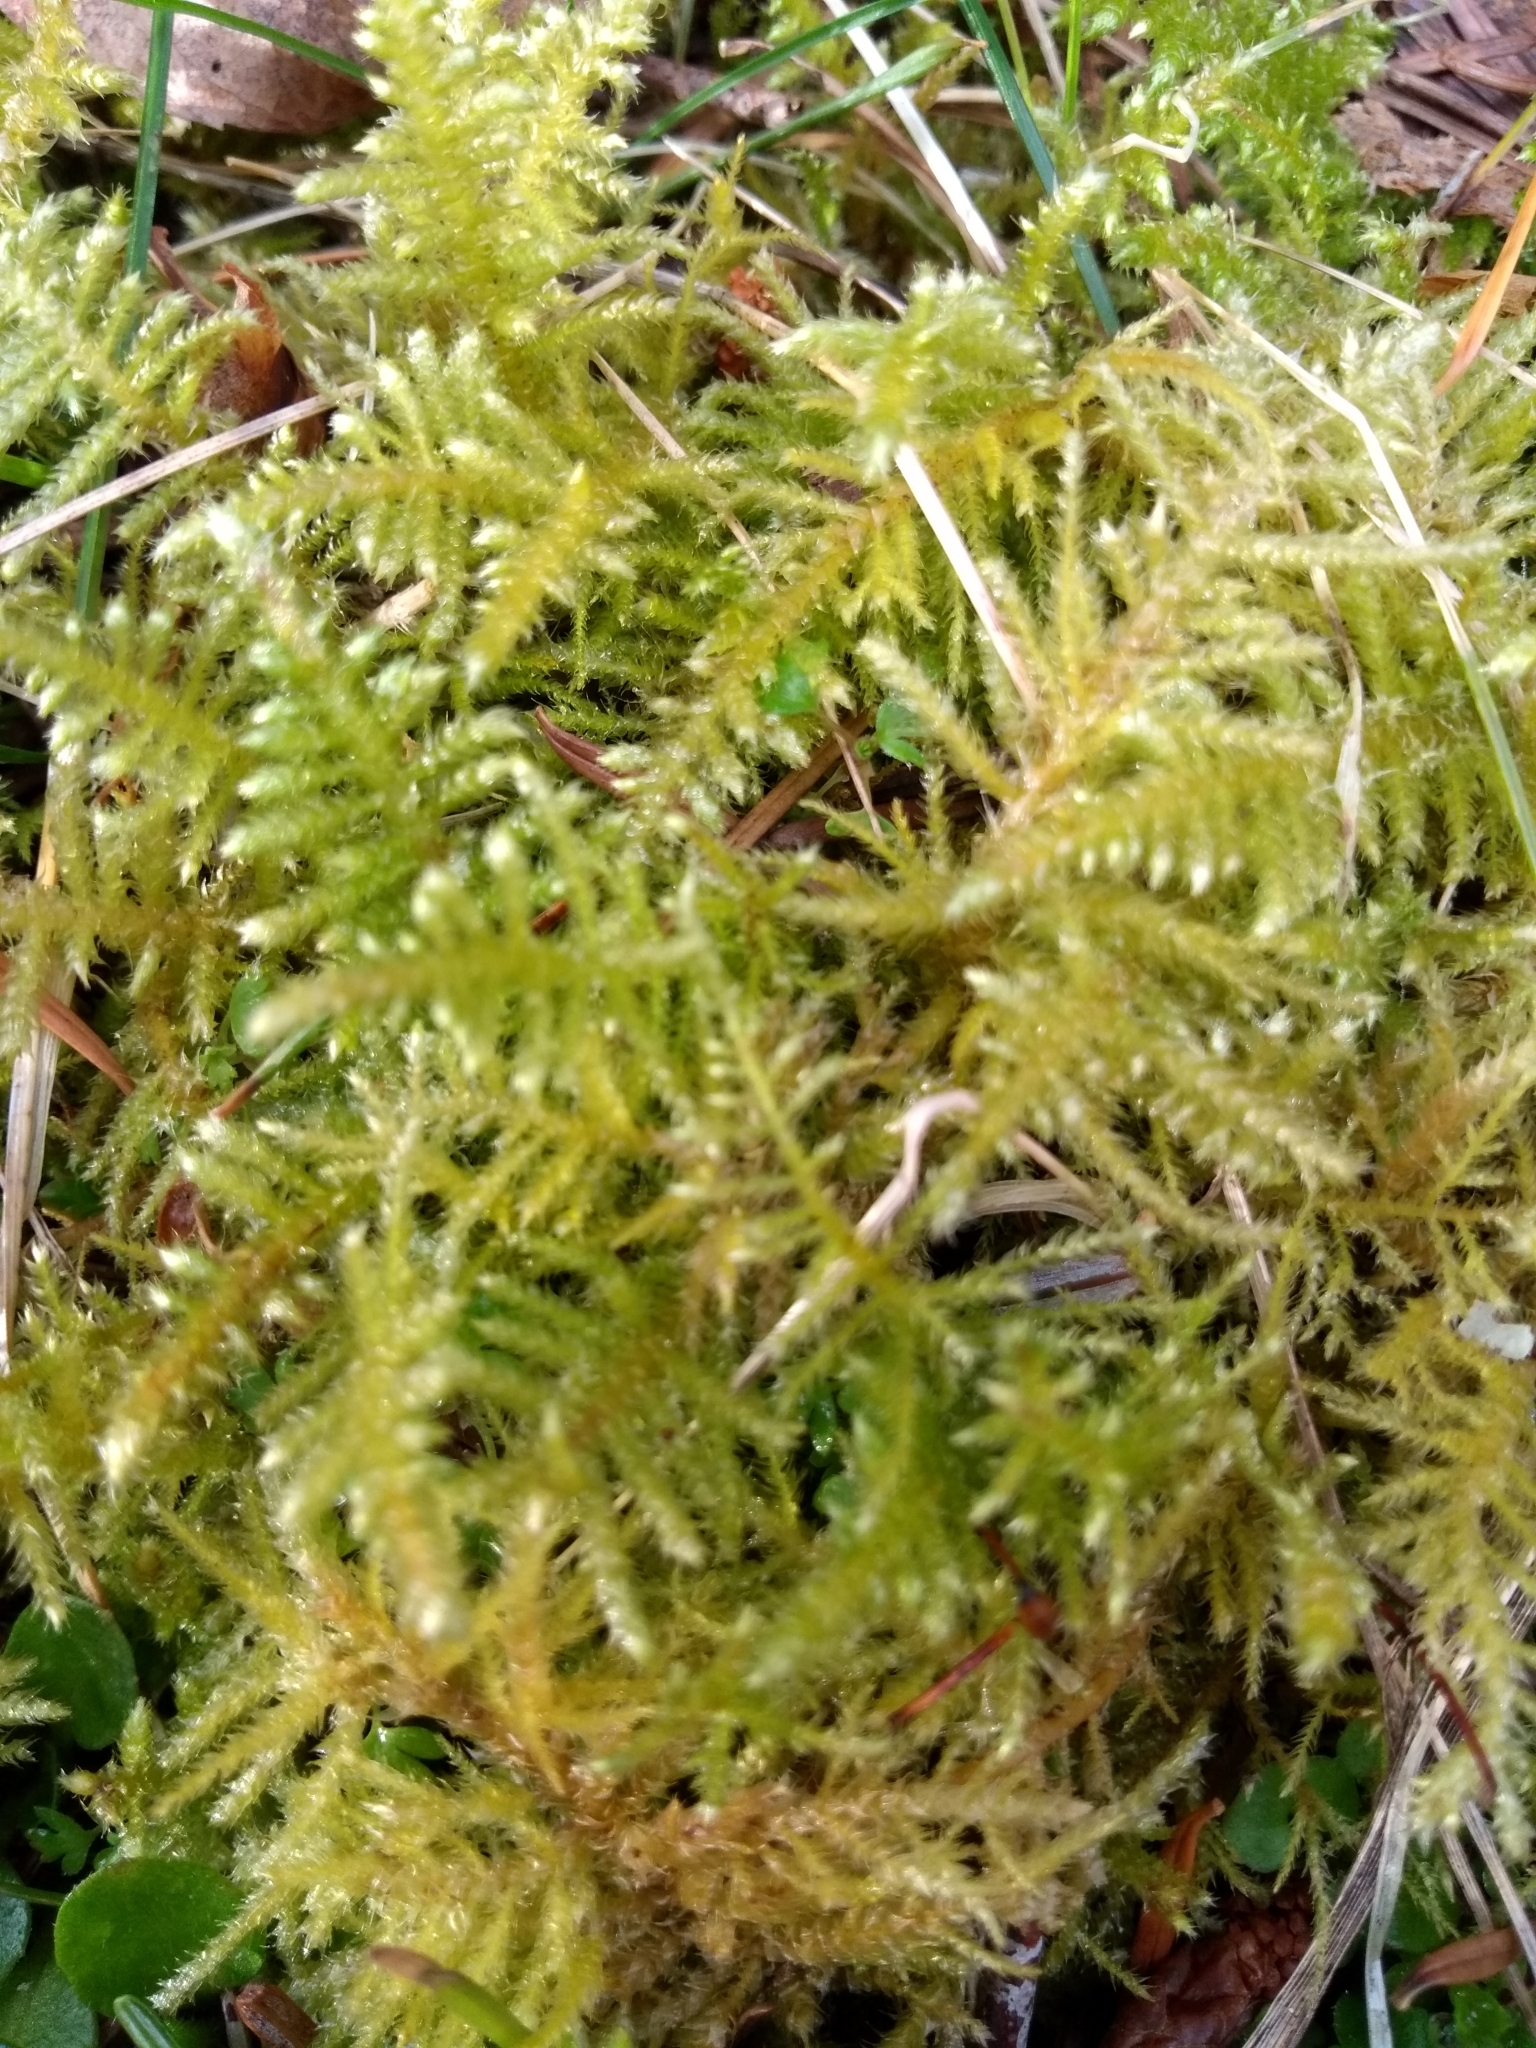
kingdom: Plantae
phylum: Bryophyta
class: Bryopsida
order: Hypnales
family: Brachytheciaceae
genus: Kindbergia
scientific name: Kindbergia oregana
